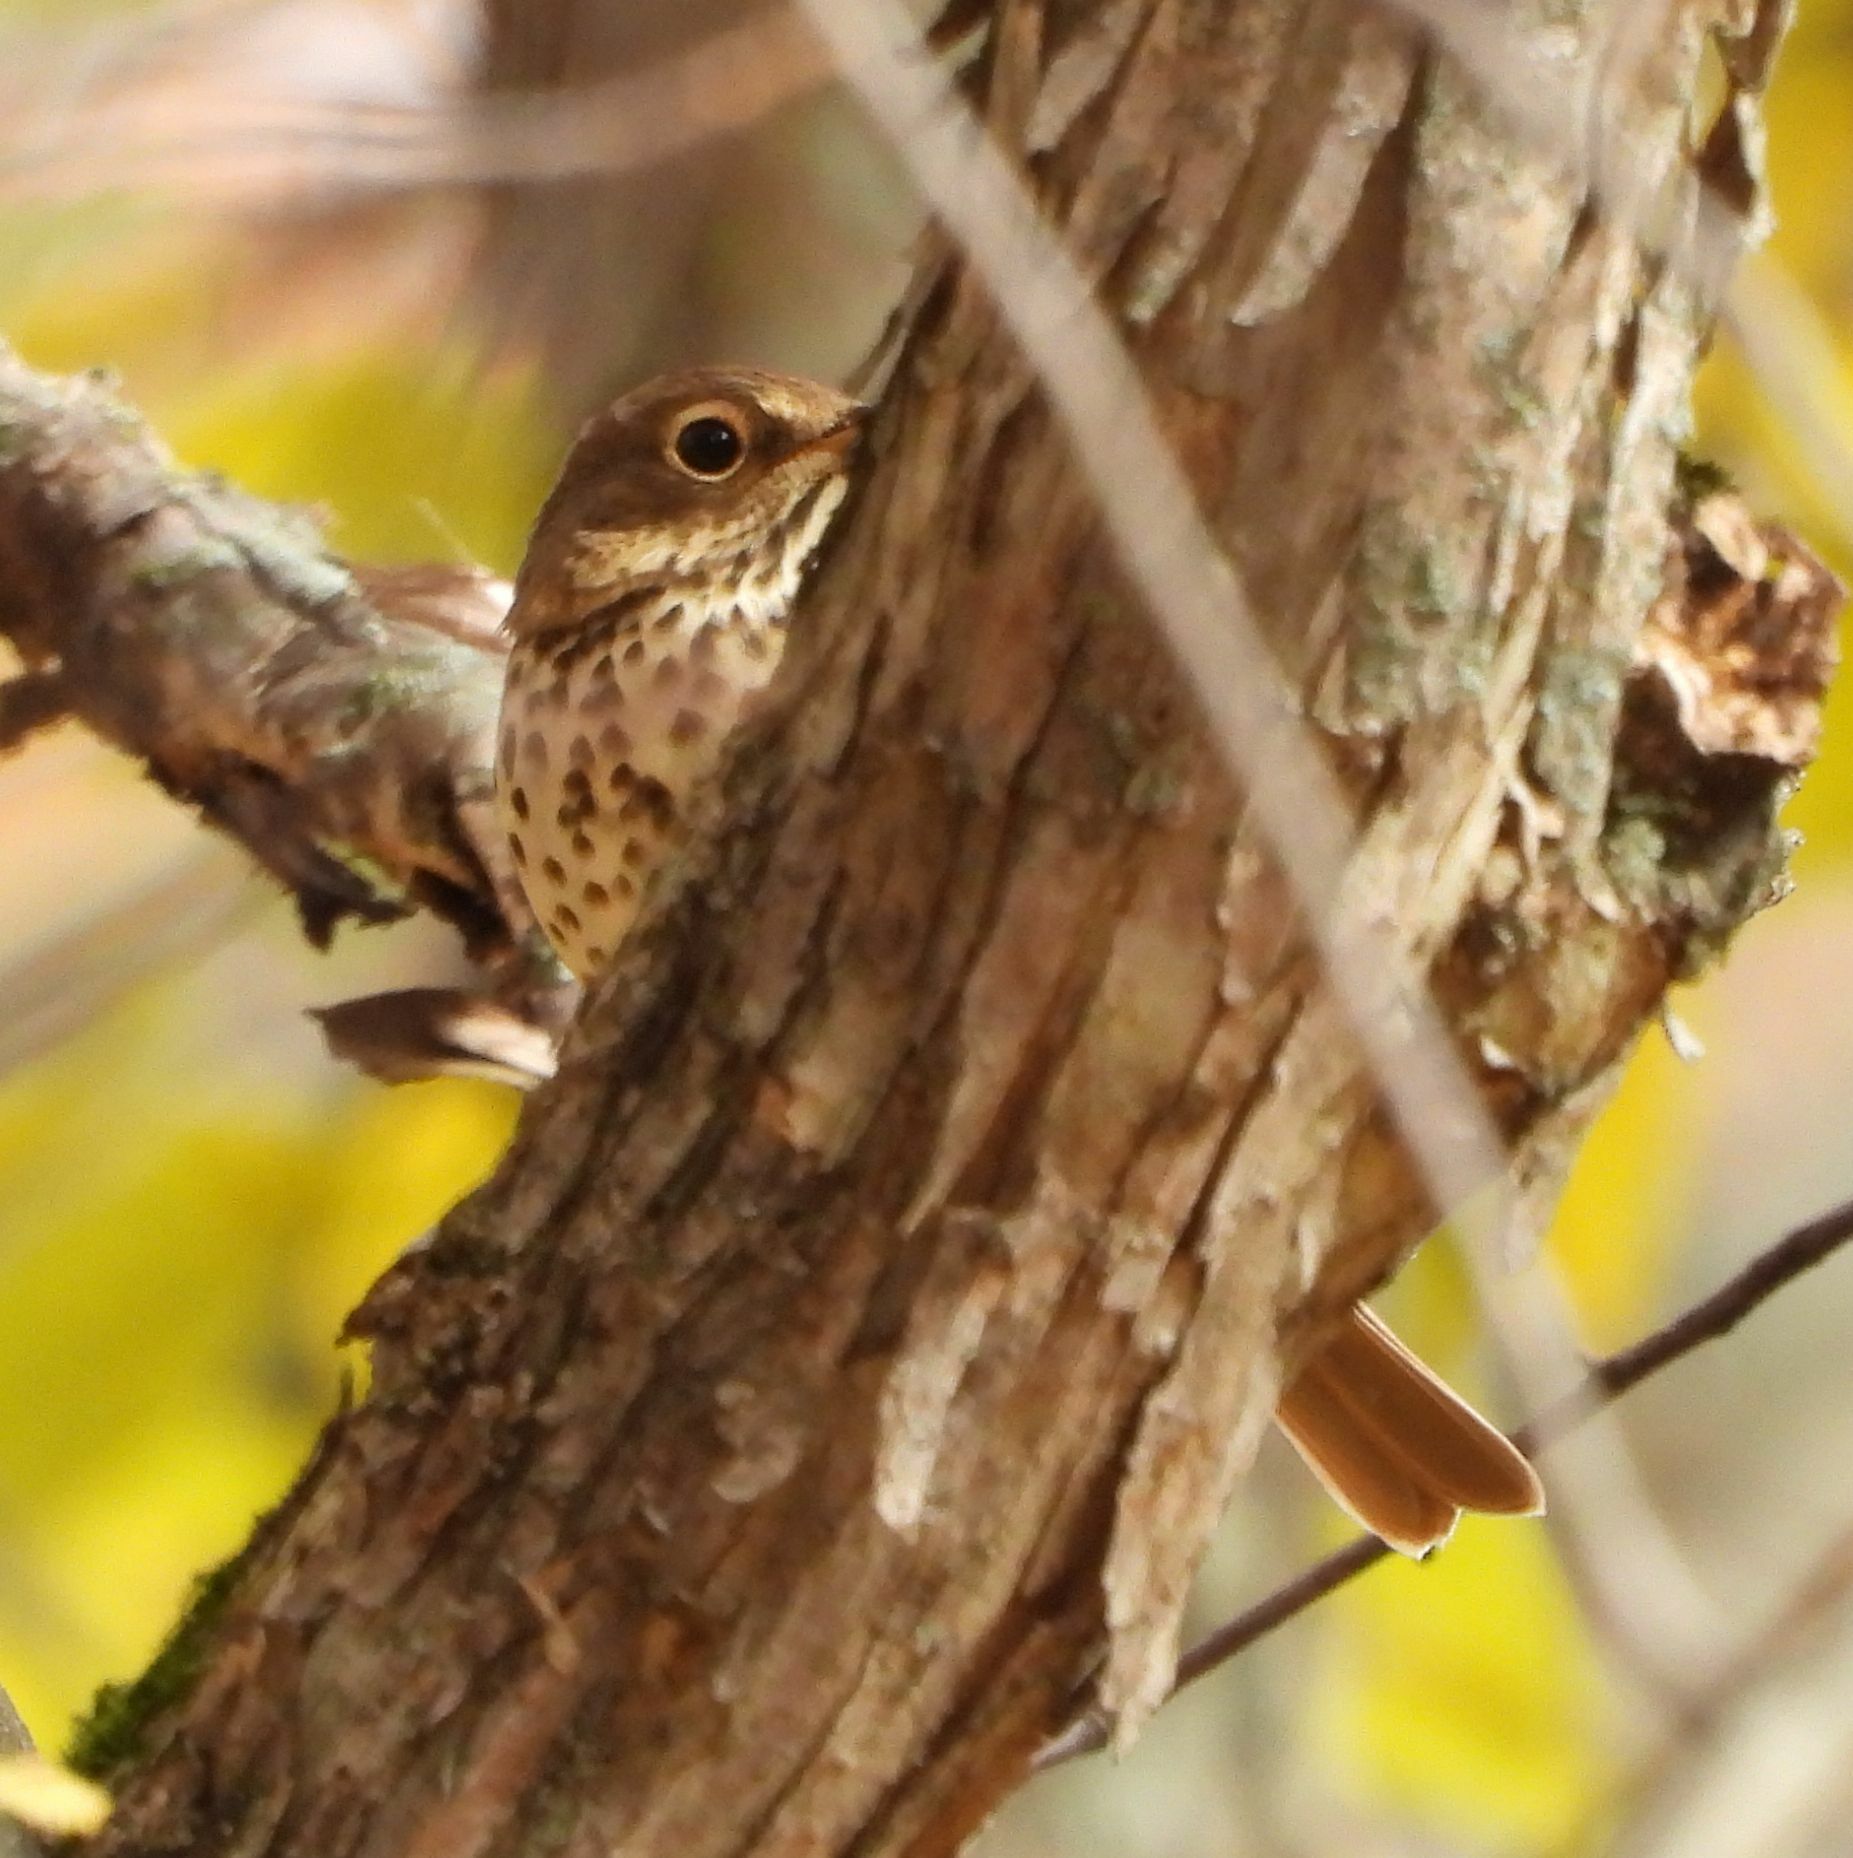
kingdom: Animalia
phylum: Chordata
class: Aves
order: Passeriformes
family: Turdidae
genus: Catharus
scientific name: Catharus guttatus
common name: Hermit thrush
